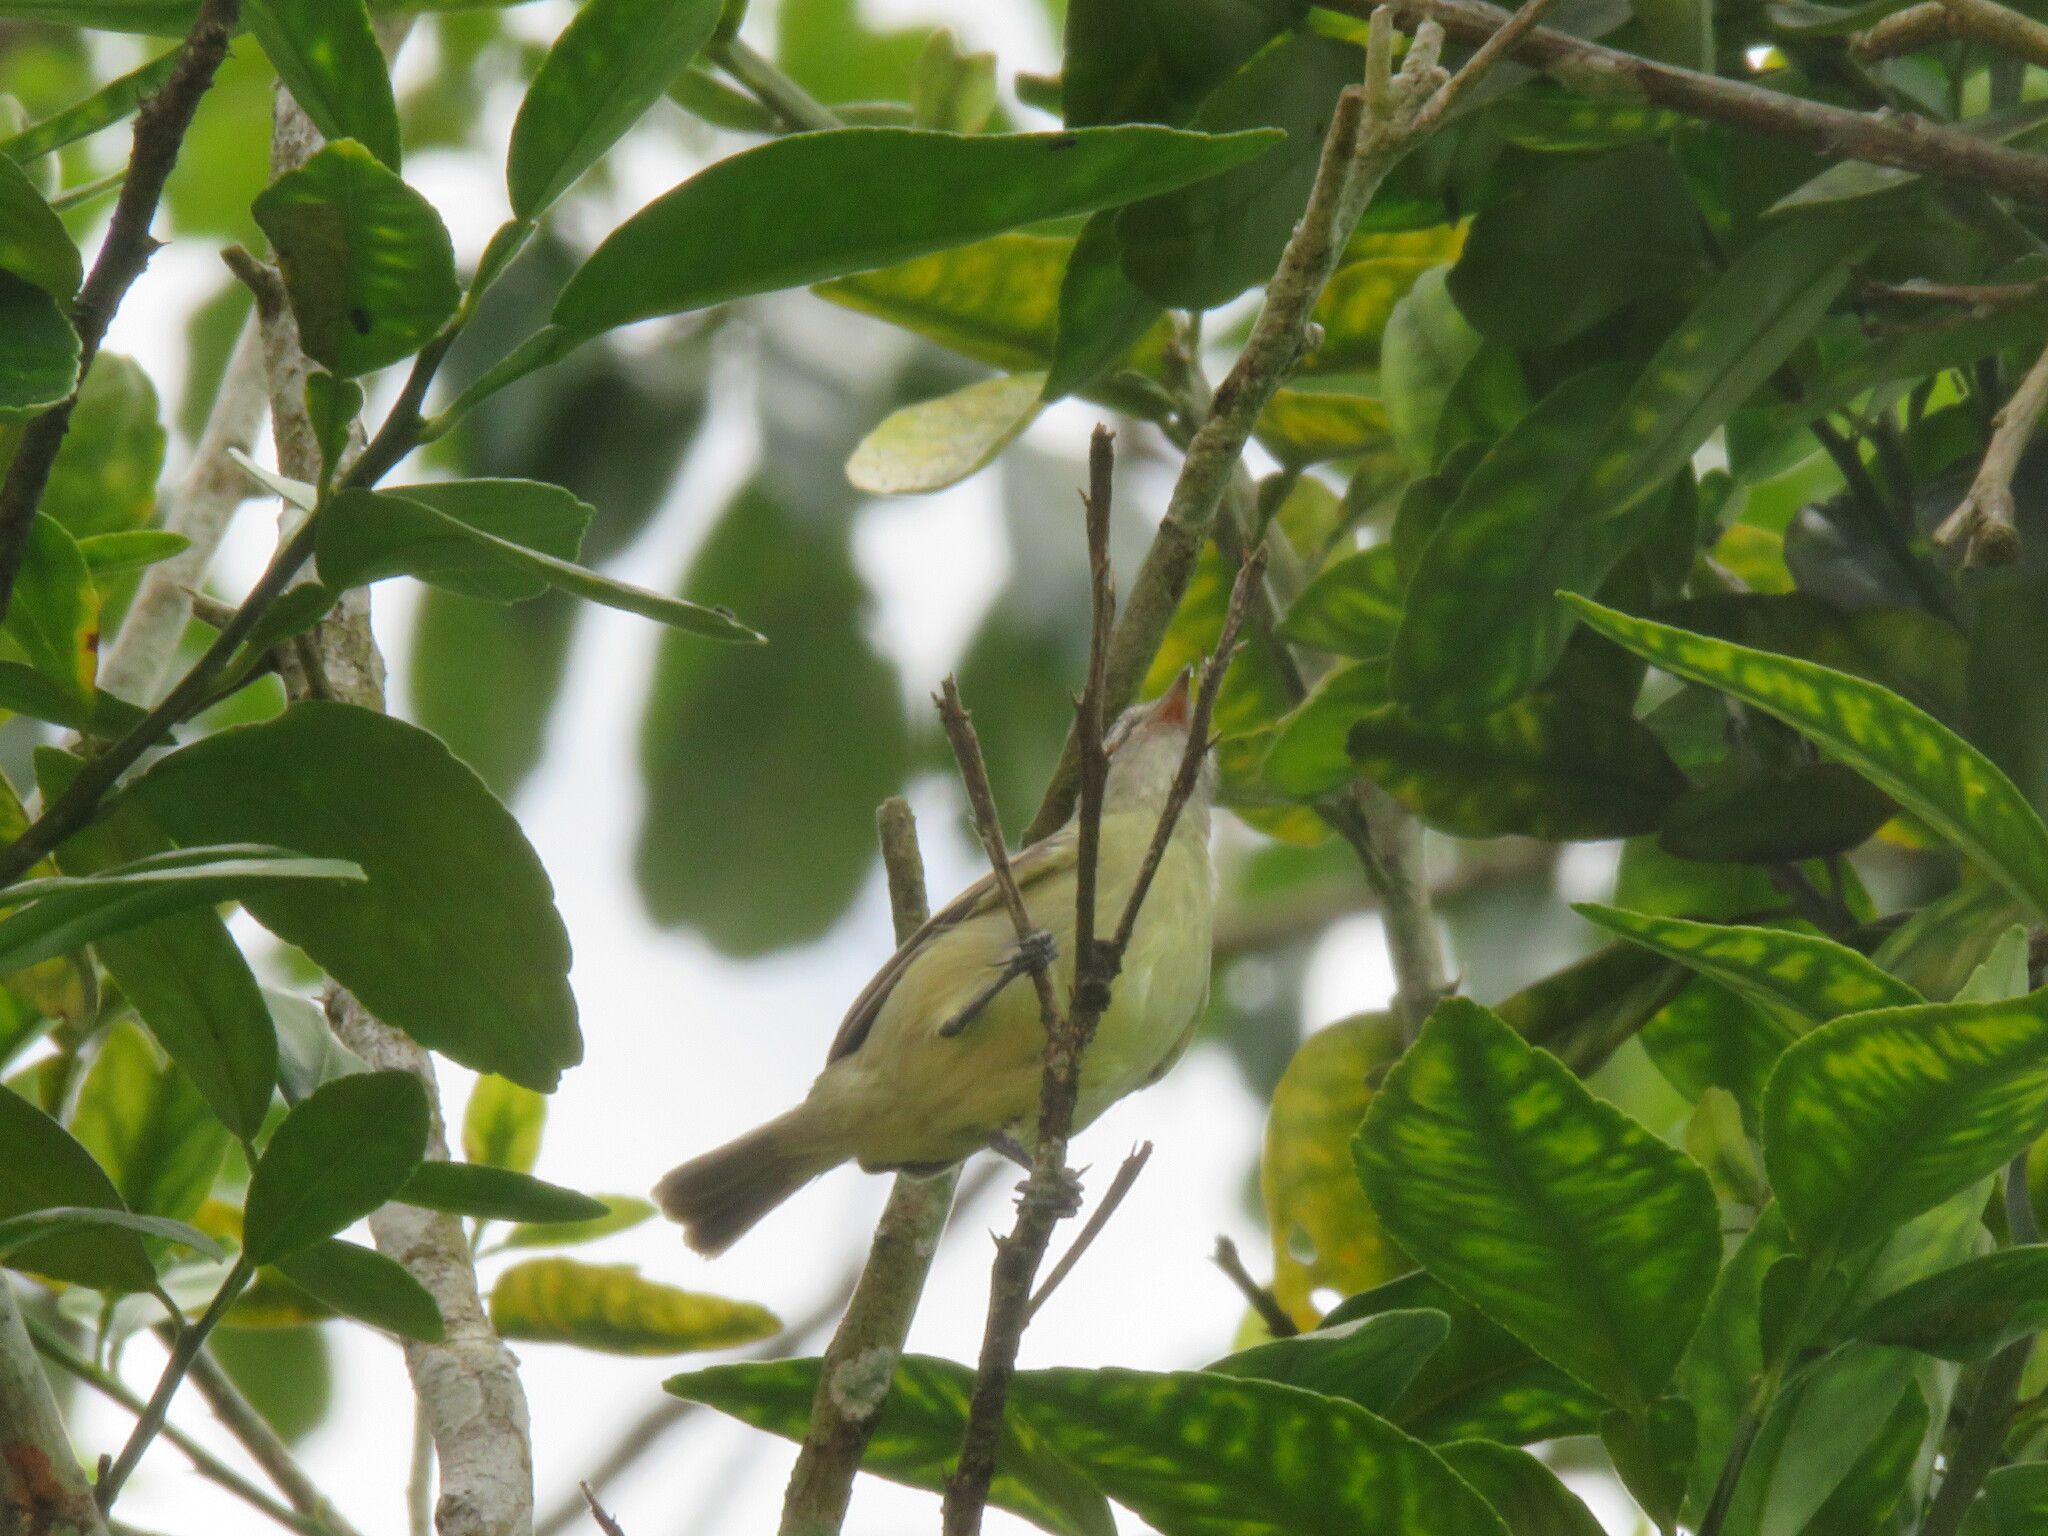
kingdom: Animalia
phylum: Chordata
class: Aves
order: Passeriformes
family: Tyrannidae
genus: Camptostoma
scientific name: Camptostoma obsoletum
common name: Southern beardless-tyrannulet
